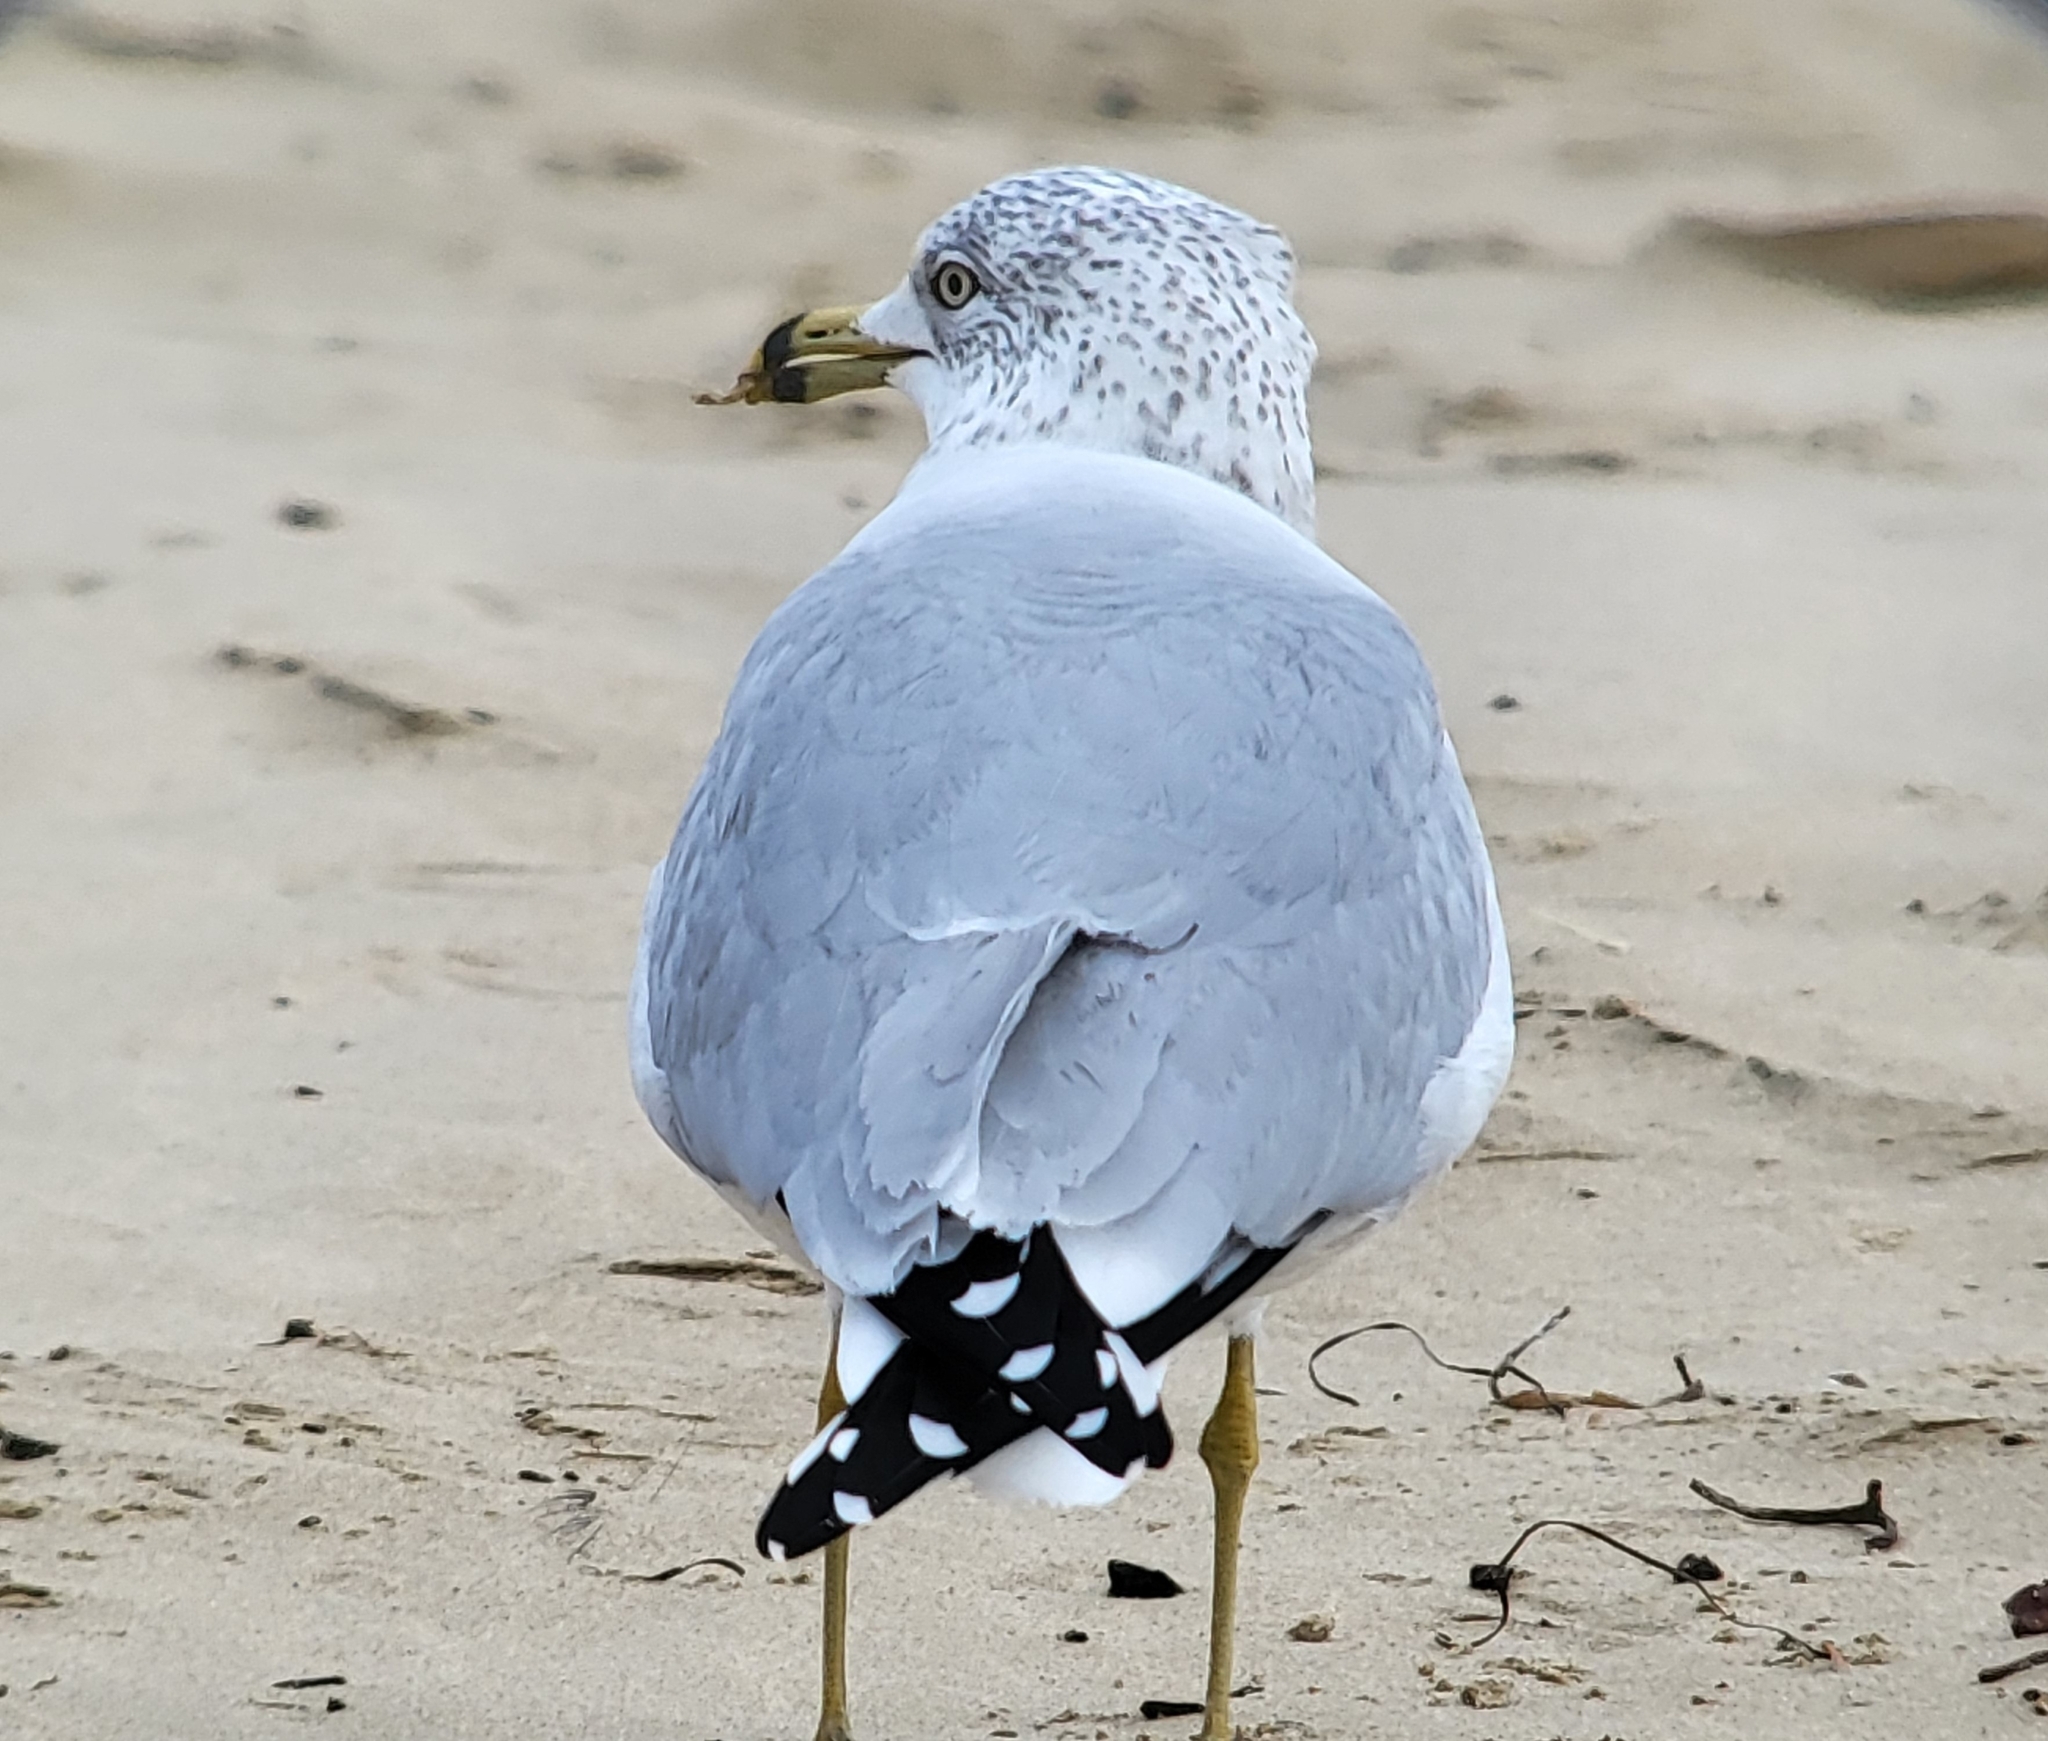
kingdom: Animalia
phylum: Chordata
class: Aves
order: Charadriiformes
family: Laridae
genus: Larus
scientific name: Larus delawarensis
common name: Ring-billed gull
